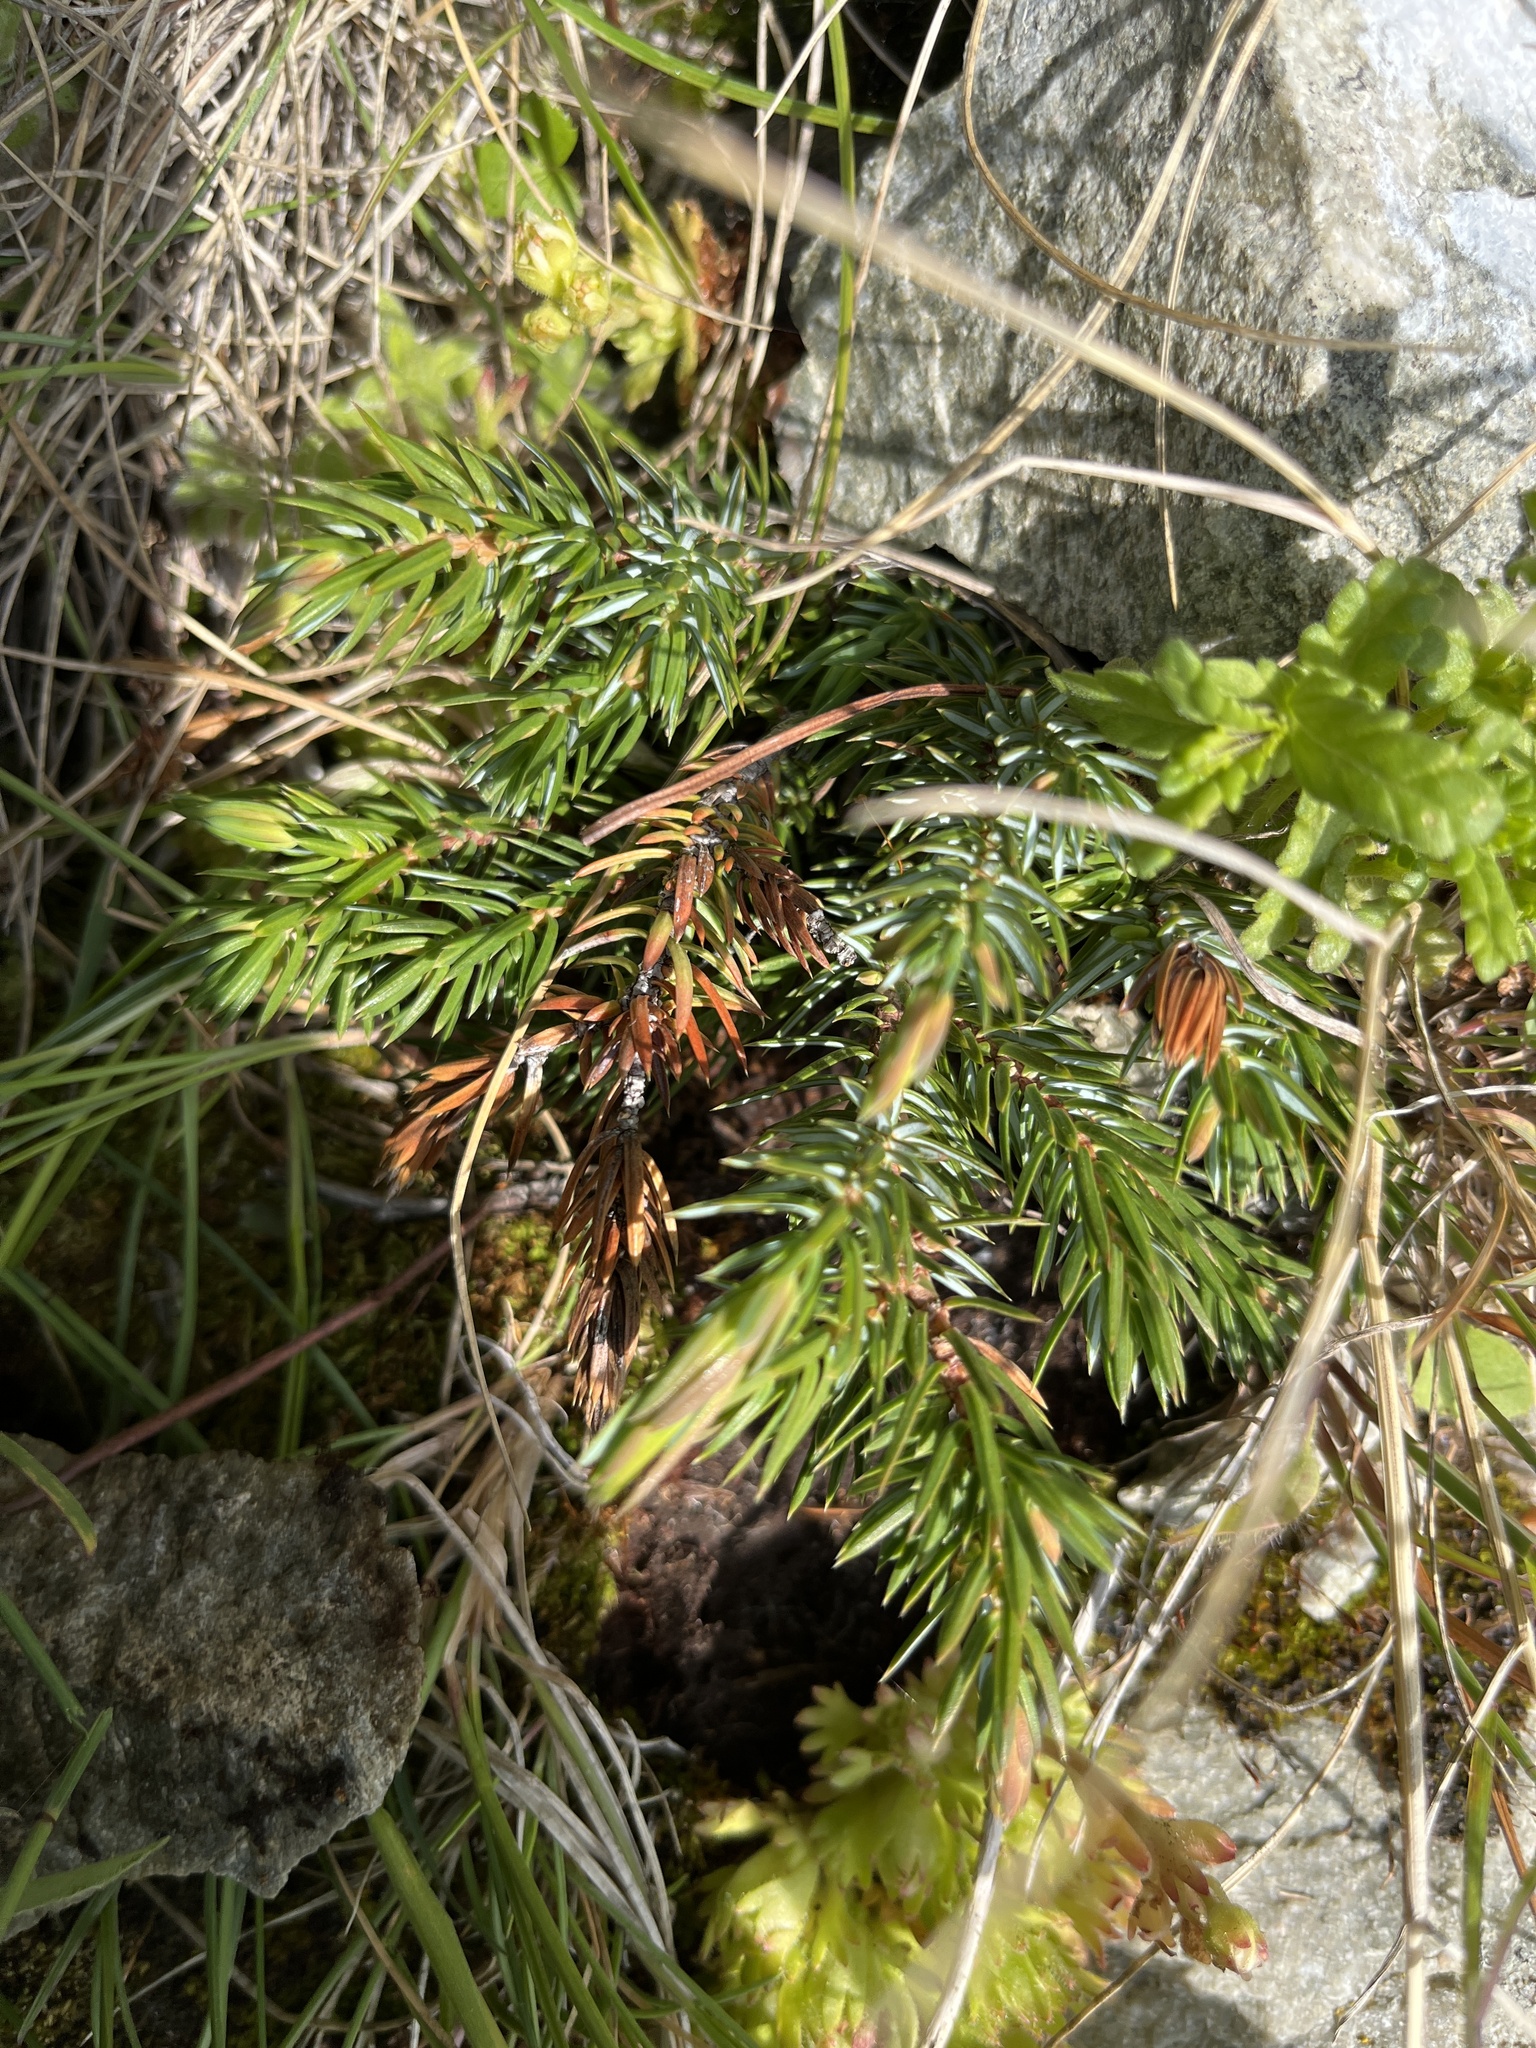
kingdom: Plantae
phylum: Tracheophyta
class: Pinopsida
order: Pinales
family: Cupressaceae
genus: Juniperus
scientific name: Juniperus communis
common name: Common juniper
